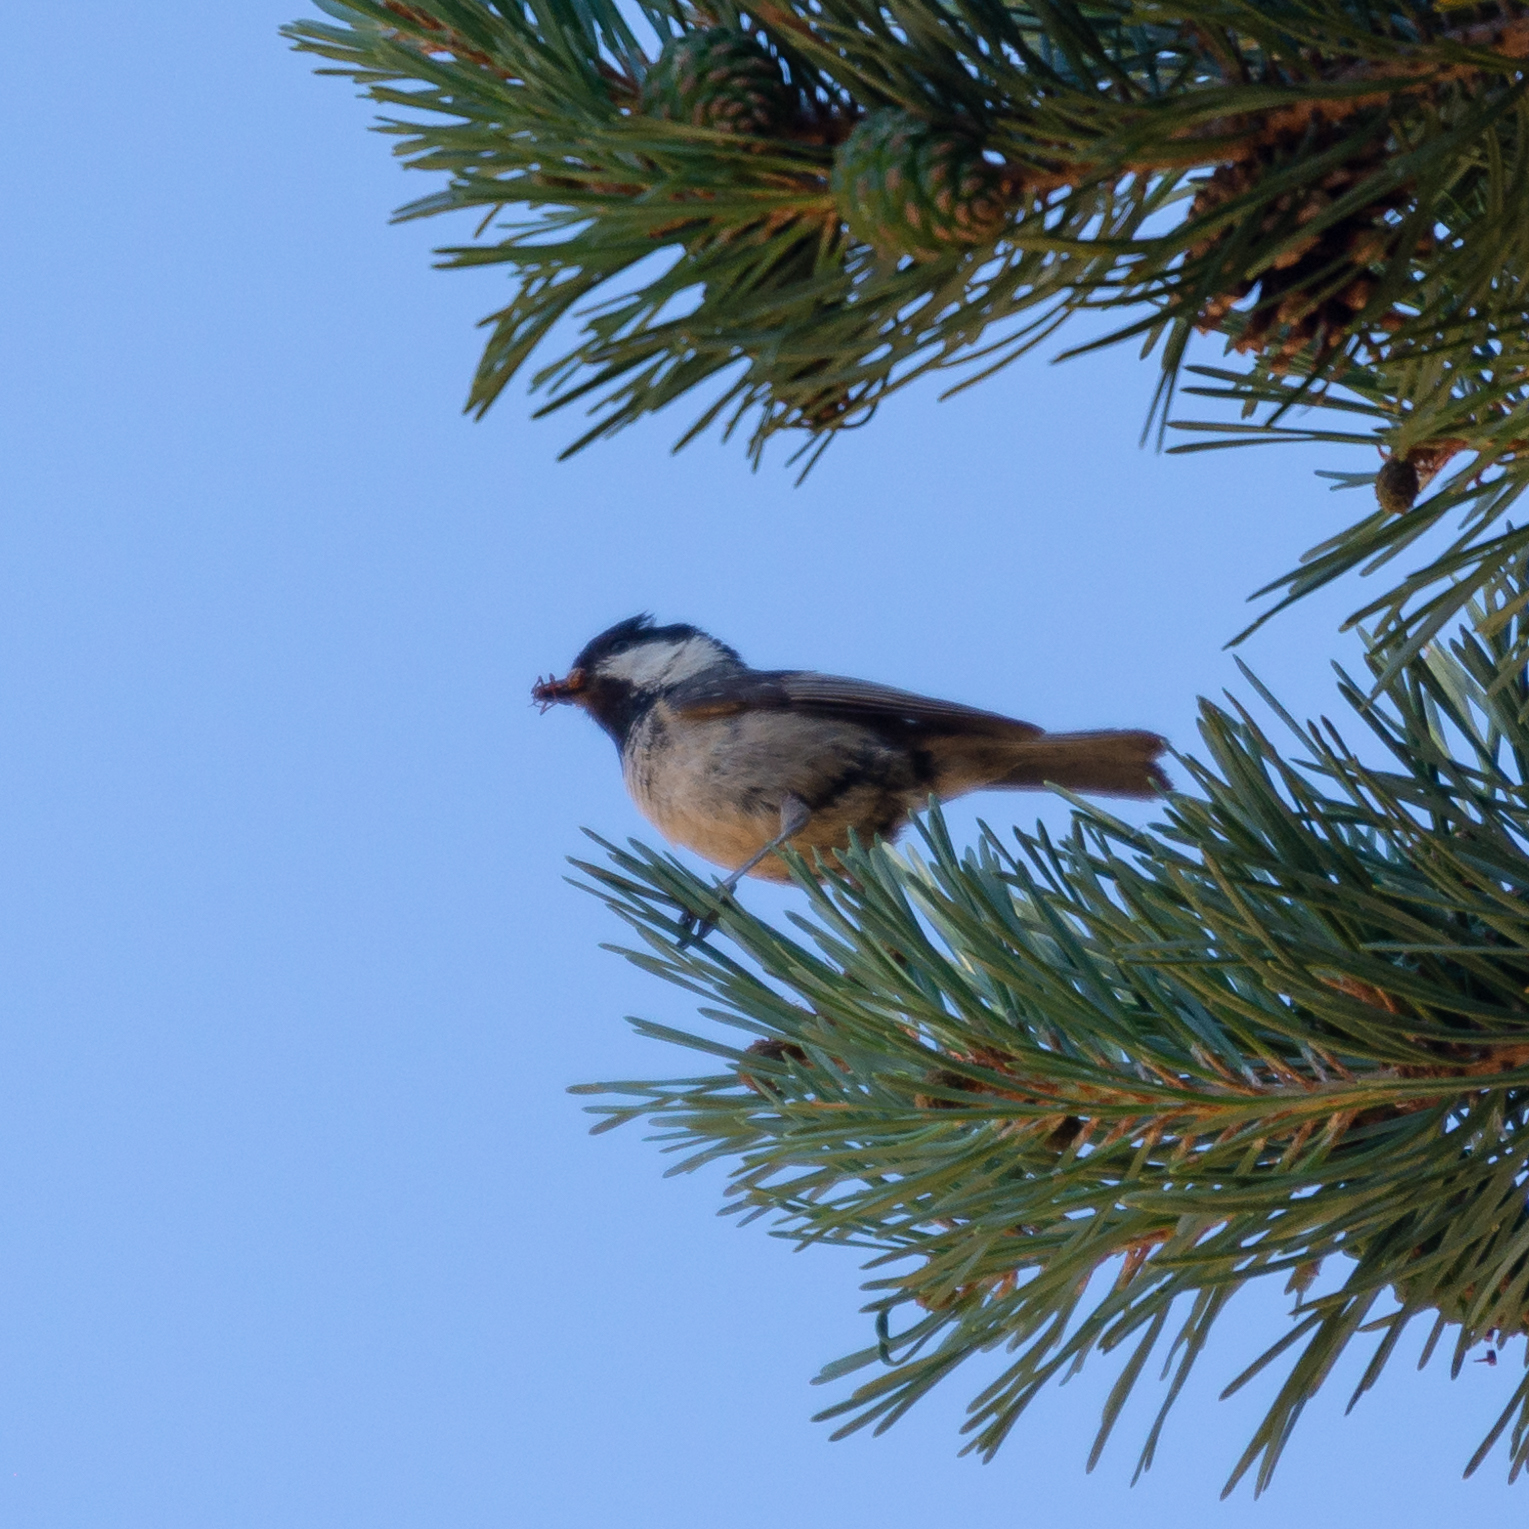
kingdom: Animalia
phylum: Chordata
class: Aves
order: Passeriformes
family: Paridae
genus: Periparus
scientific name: Periparus ater
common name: Coal tit
